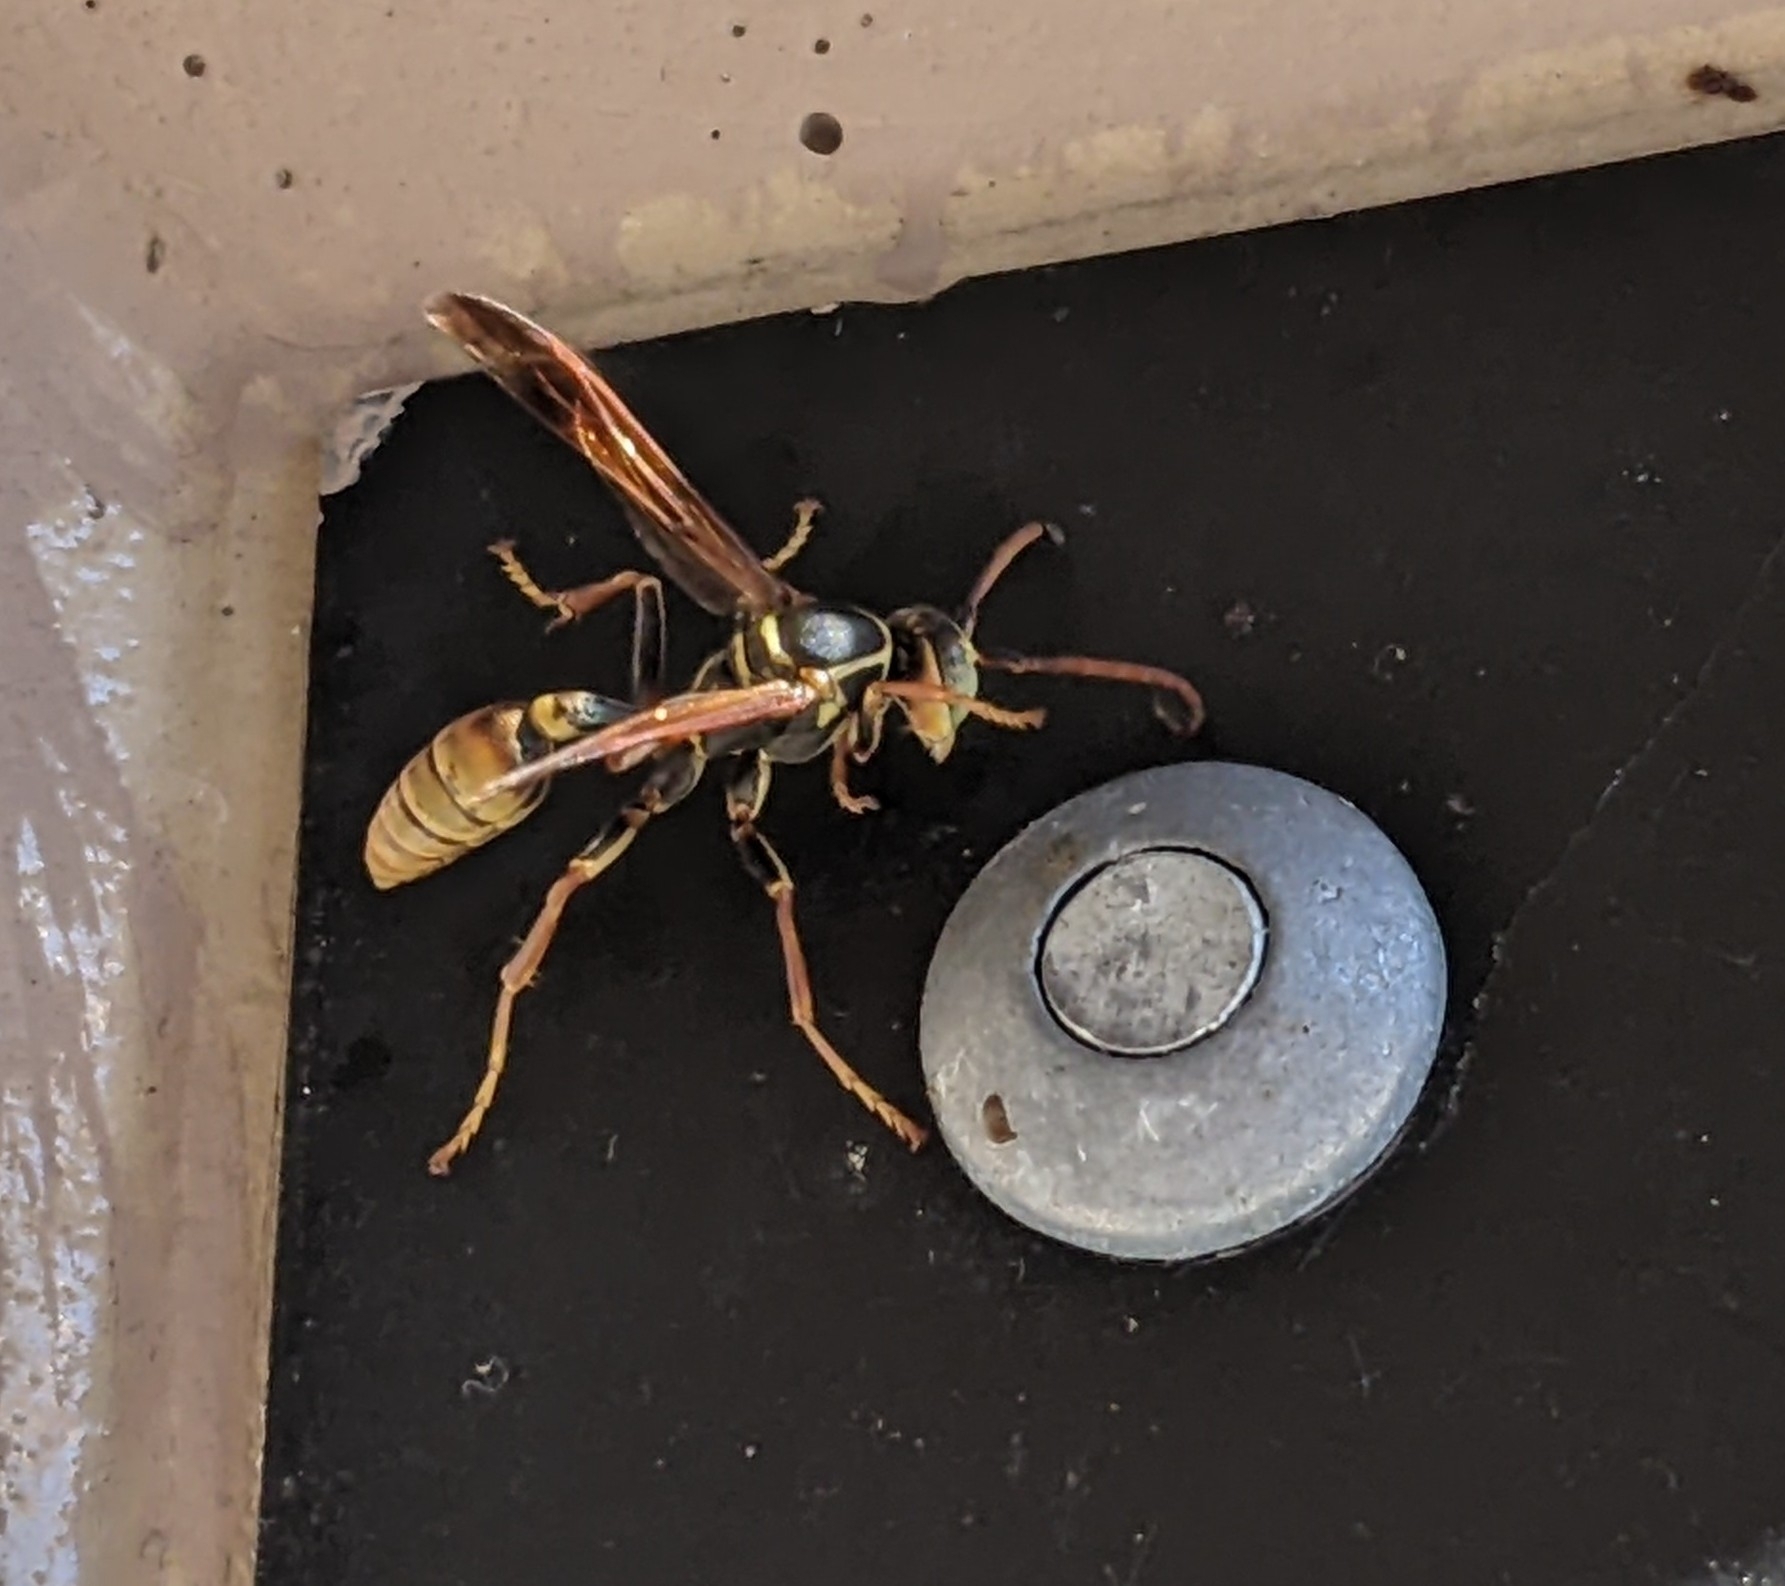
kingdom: Animalia
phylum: Arthropoda
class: Insecta
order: Hymenoptera
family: Vespidae
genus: Mischocyttarus
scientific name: Mischocyttarus flavitarsis
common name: Wasp
